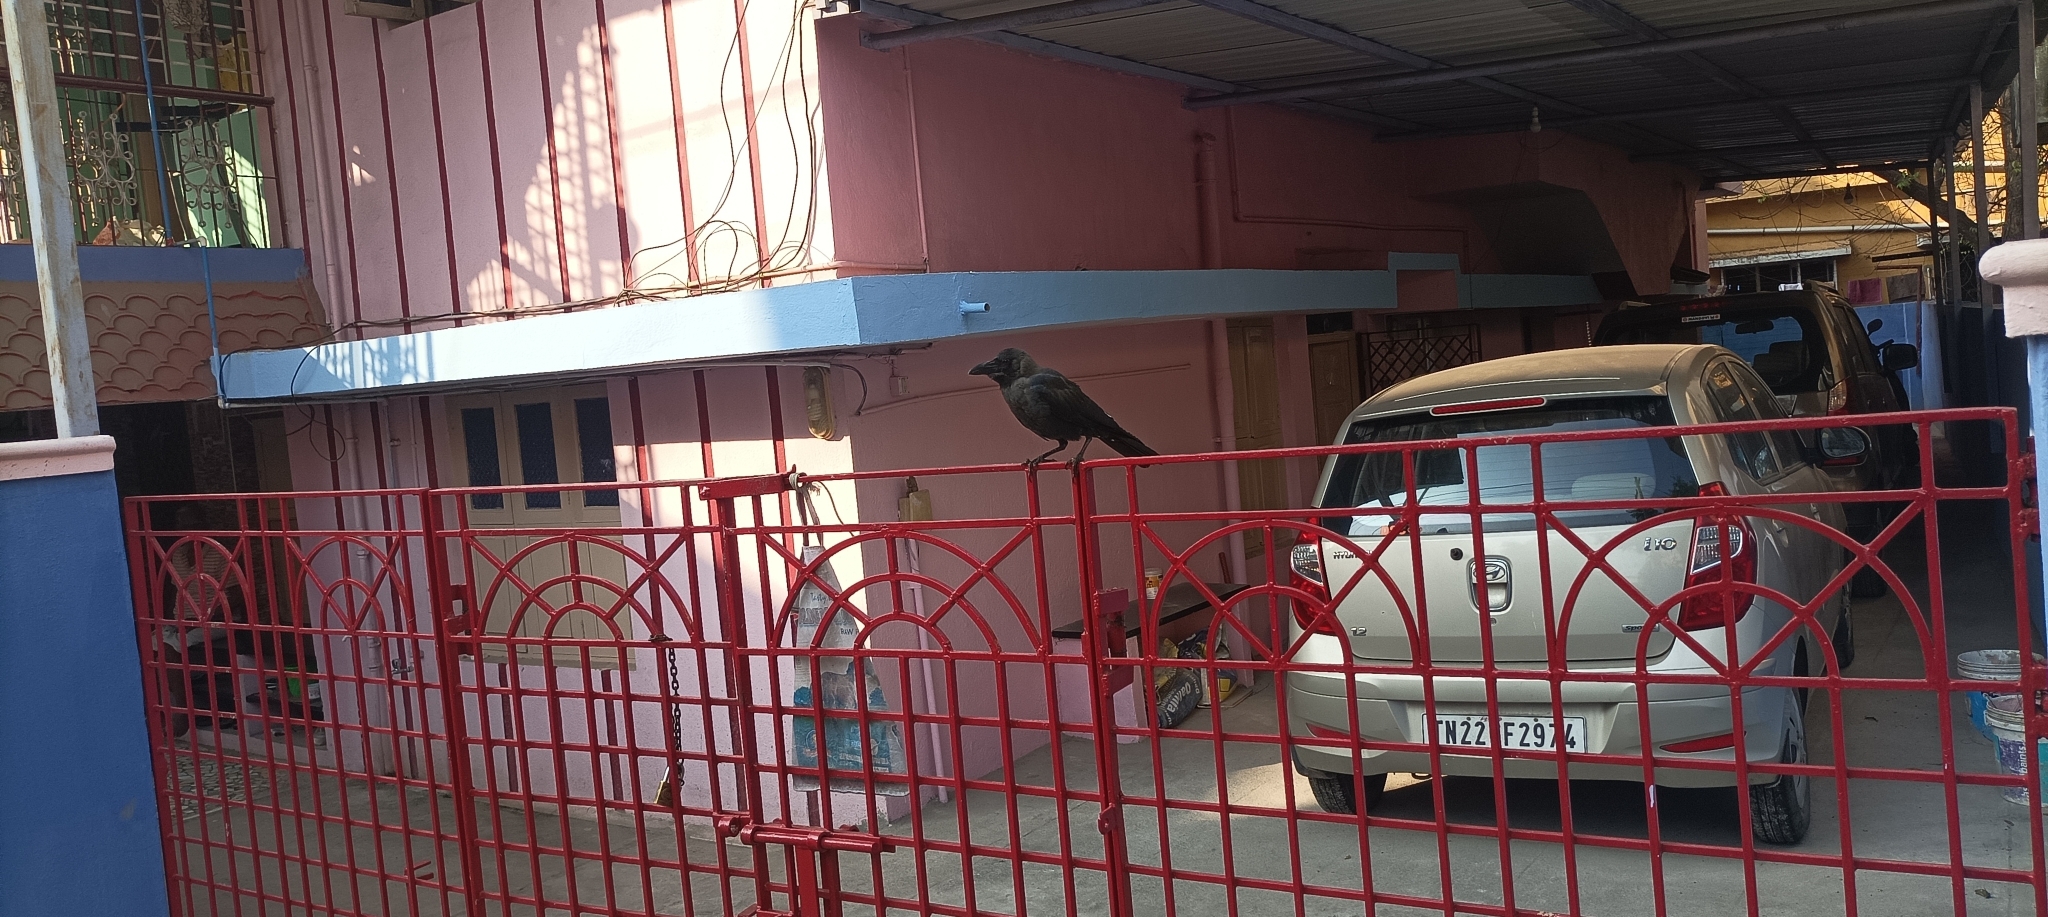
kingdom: Animalia
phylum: Chordata
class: Aves
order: Passeriformes
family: Corvidae
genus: Corvus
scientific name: Corvus splendens
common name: House crow
